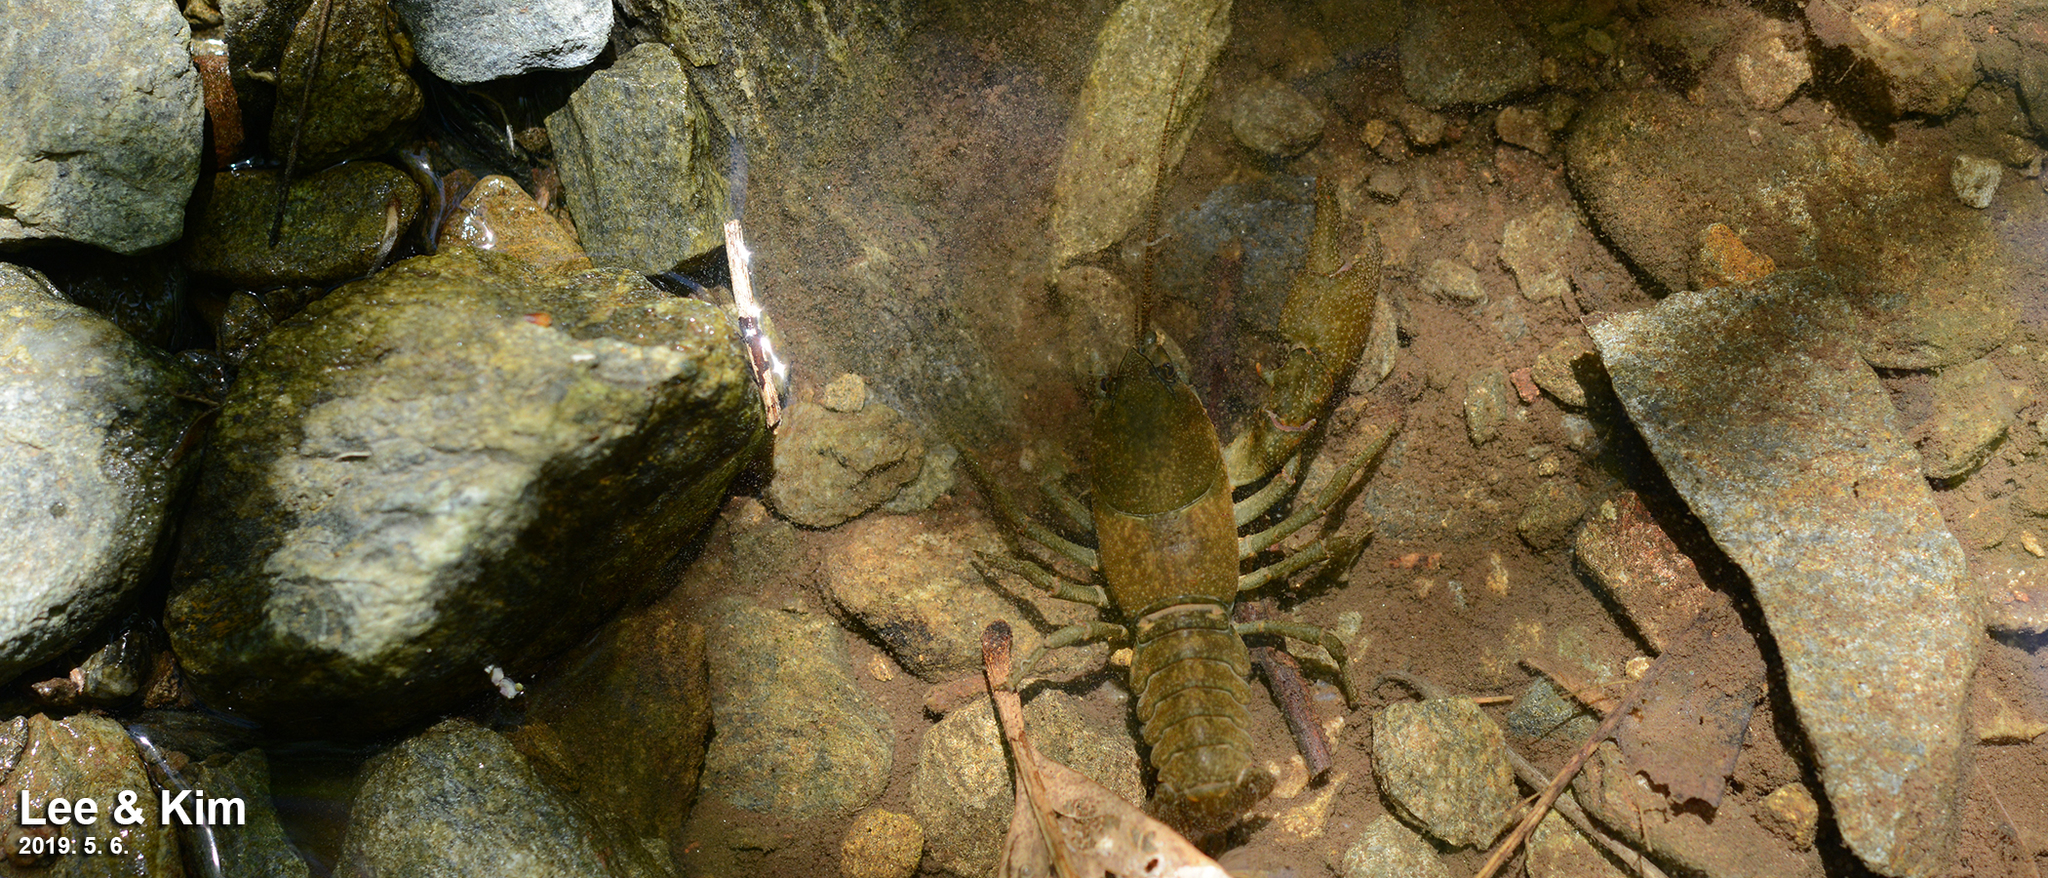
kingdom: Animalia
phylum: Arthropoda
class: Malacostraca
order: Decapoda
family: Cambaroididae
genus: Cambaroides
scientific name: Cambaroides similis
